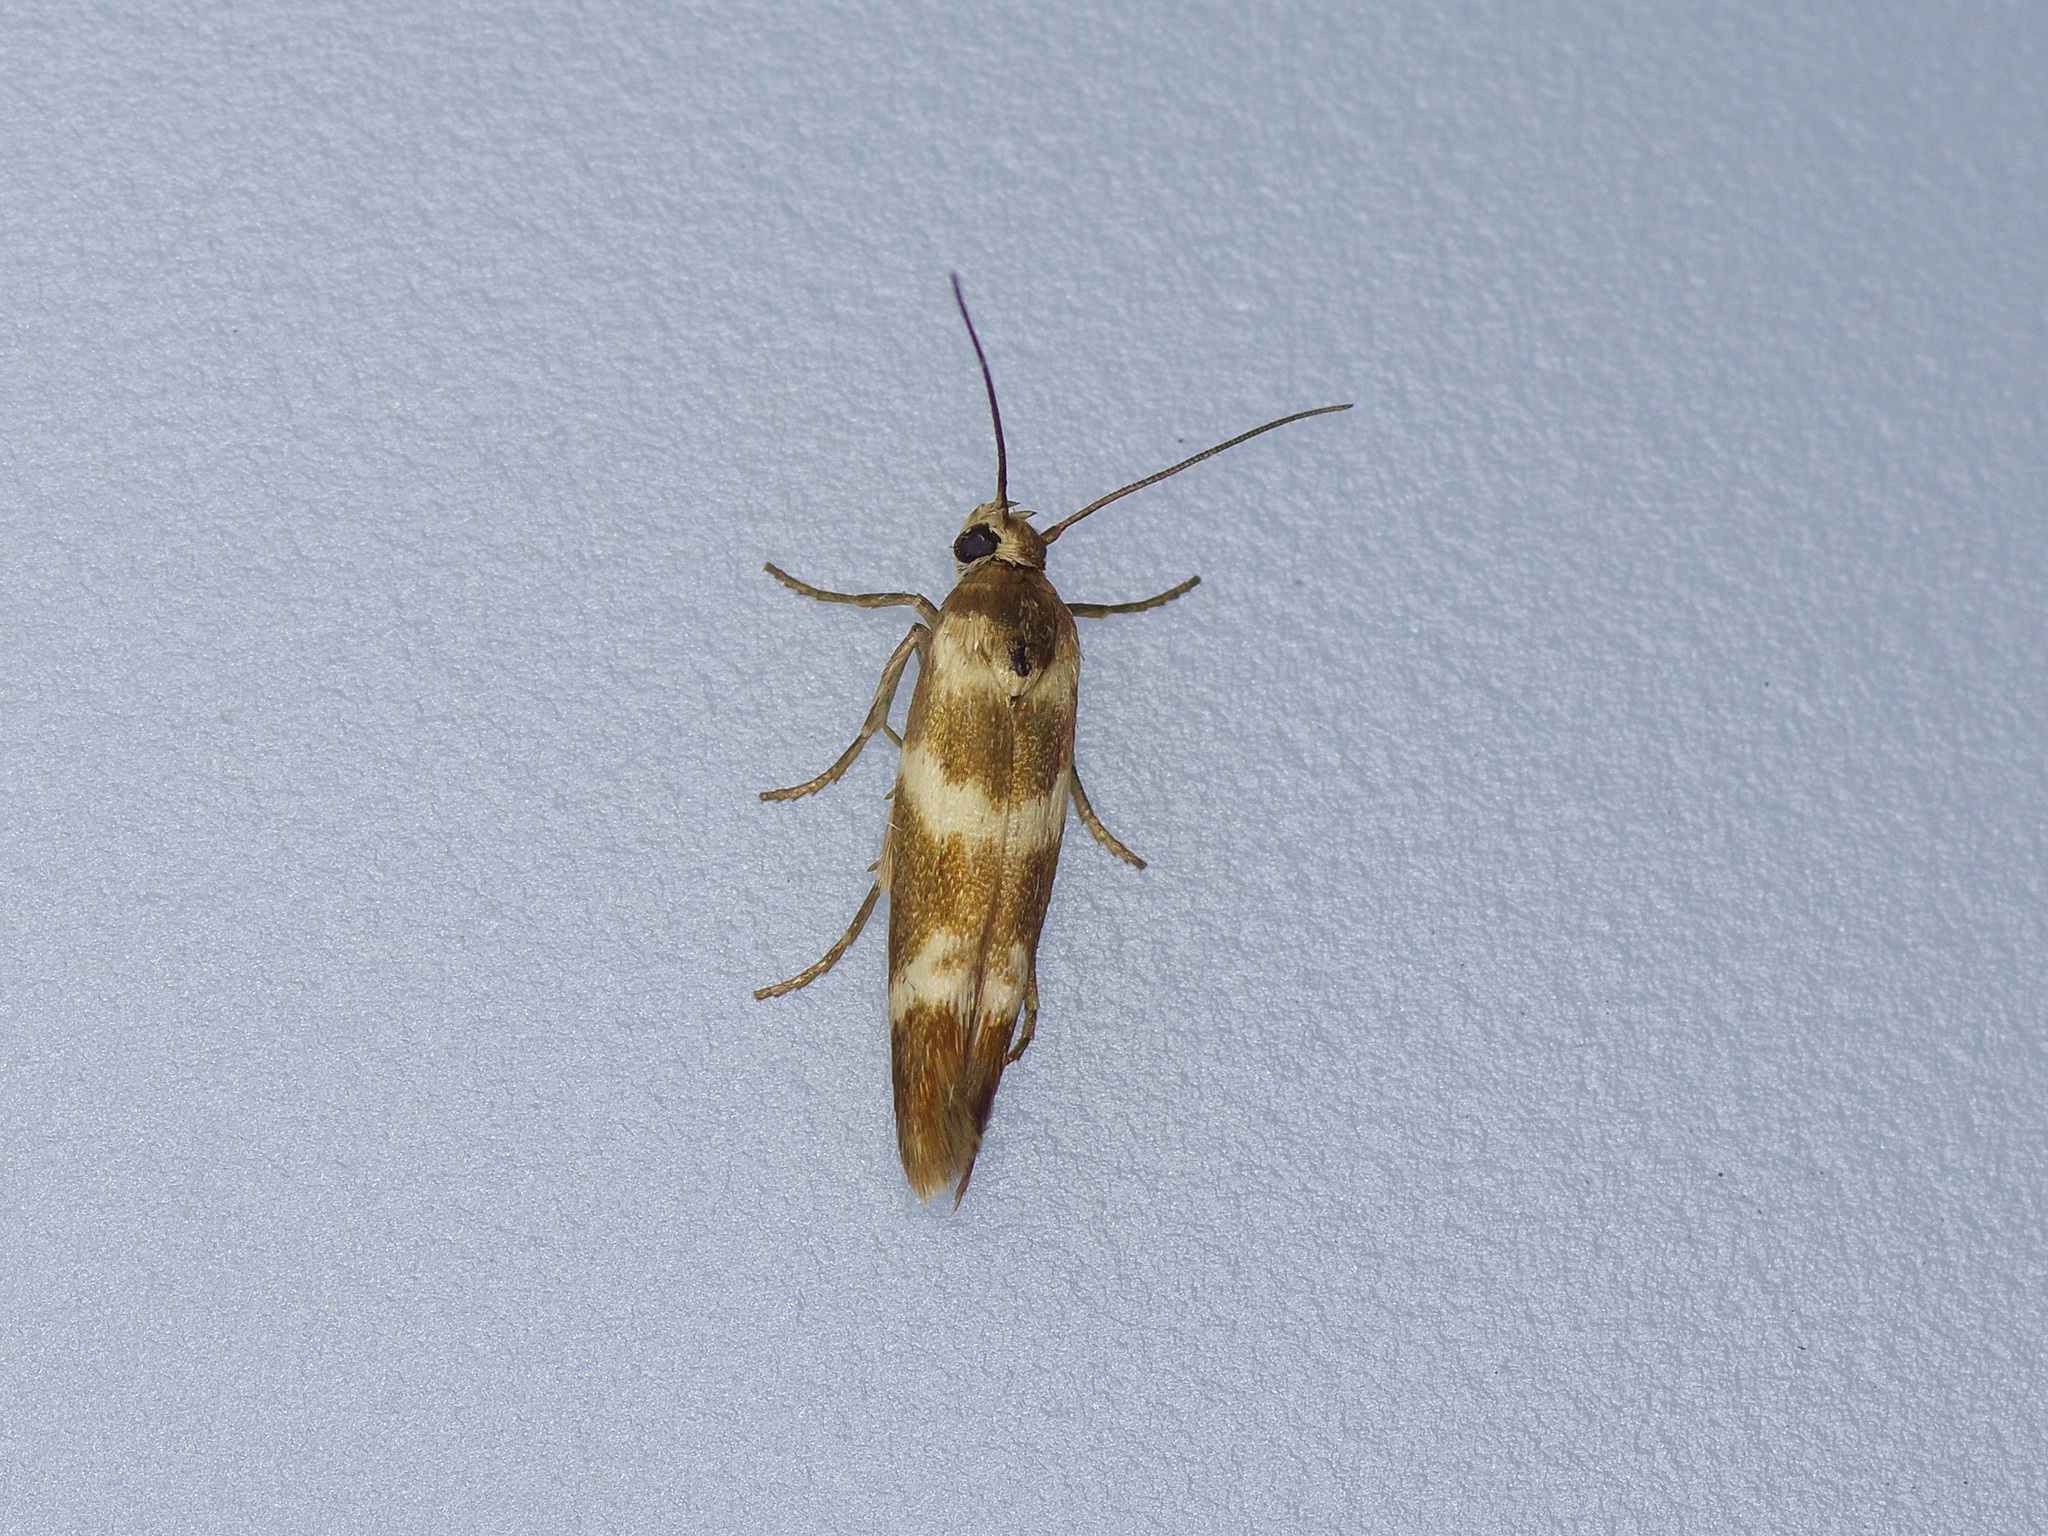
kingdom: Animalia
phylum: Arthropoda
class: Insecta
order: Lepidoptera
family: Scythrididae
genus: Scythris
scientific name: Scythris trivinctella
